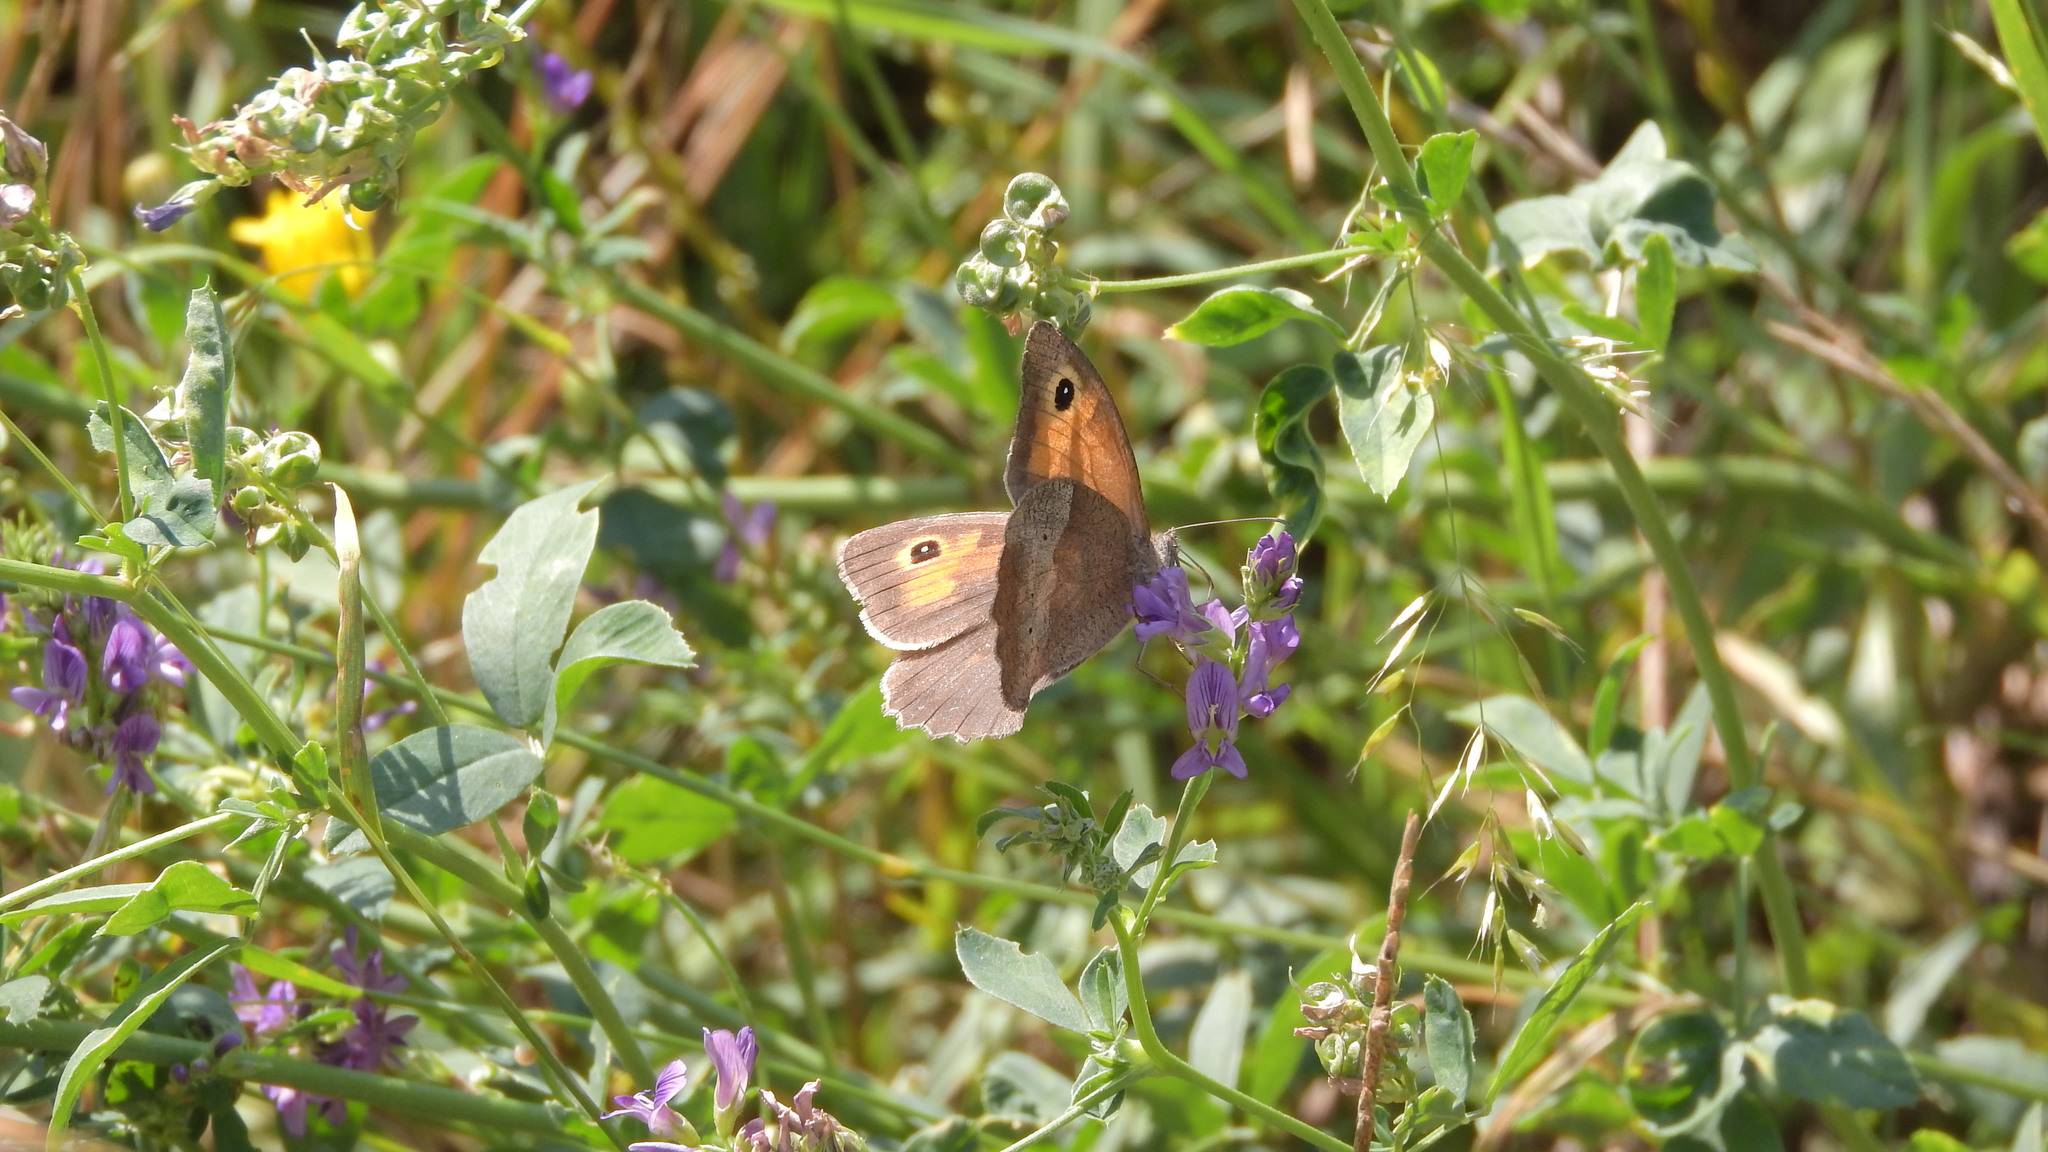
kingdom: Animalia
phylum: Arthropoda
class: Insecta
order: Lepidoptera
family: Nymphalidae
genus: Maniola
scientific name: Maniola jurtina
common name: Meadow brown
